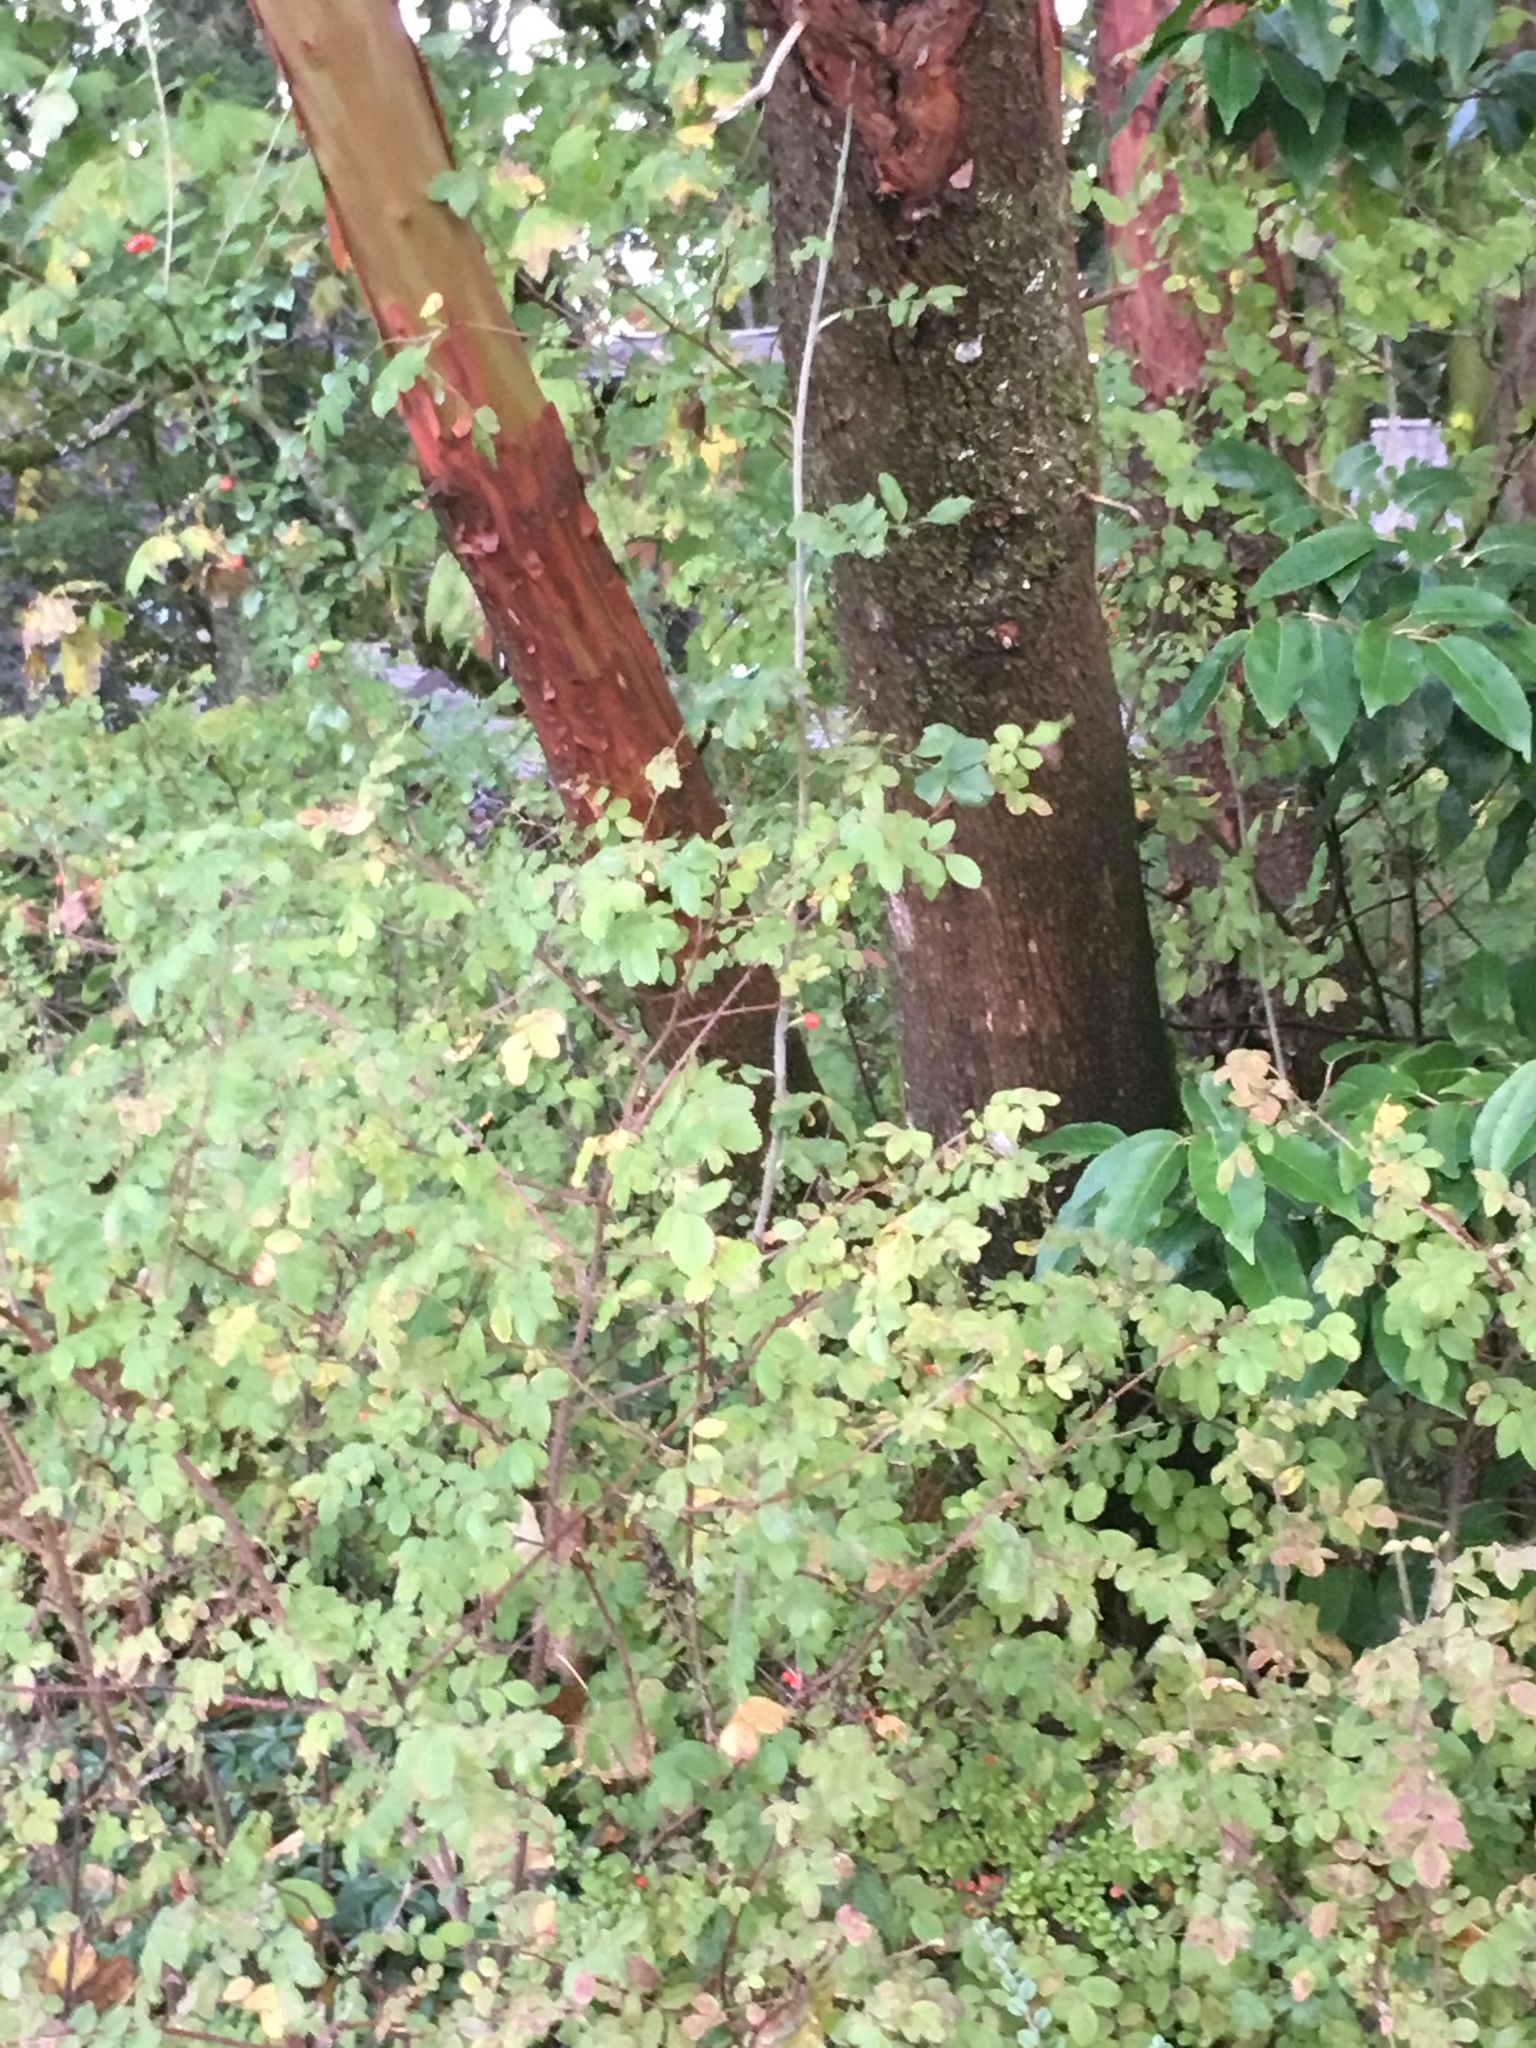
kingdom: Plantae
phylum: Tracheophyta
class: Magnoliopsida
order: Ericales
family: Ericaceae
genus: Arbutus
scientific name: Arbutus menziesii
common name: Pacific madrone
